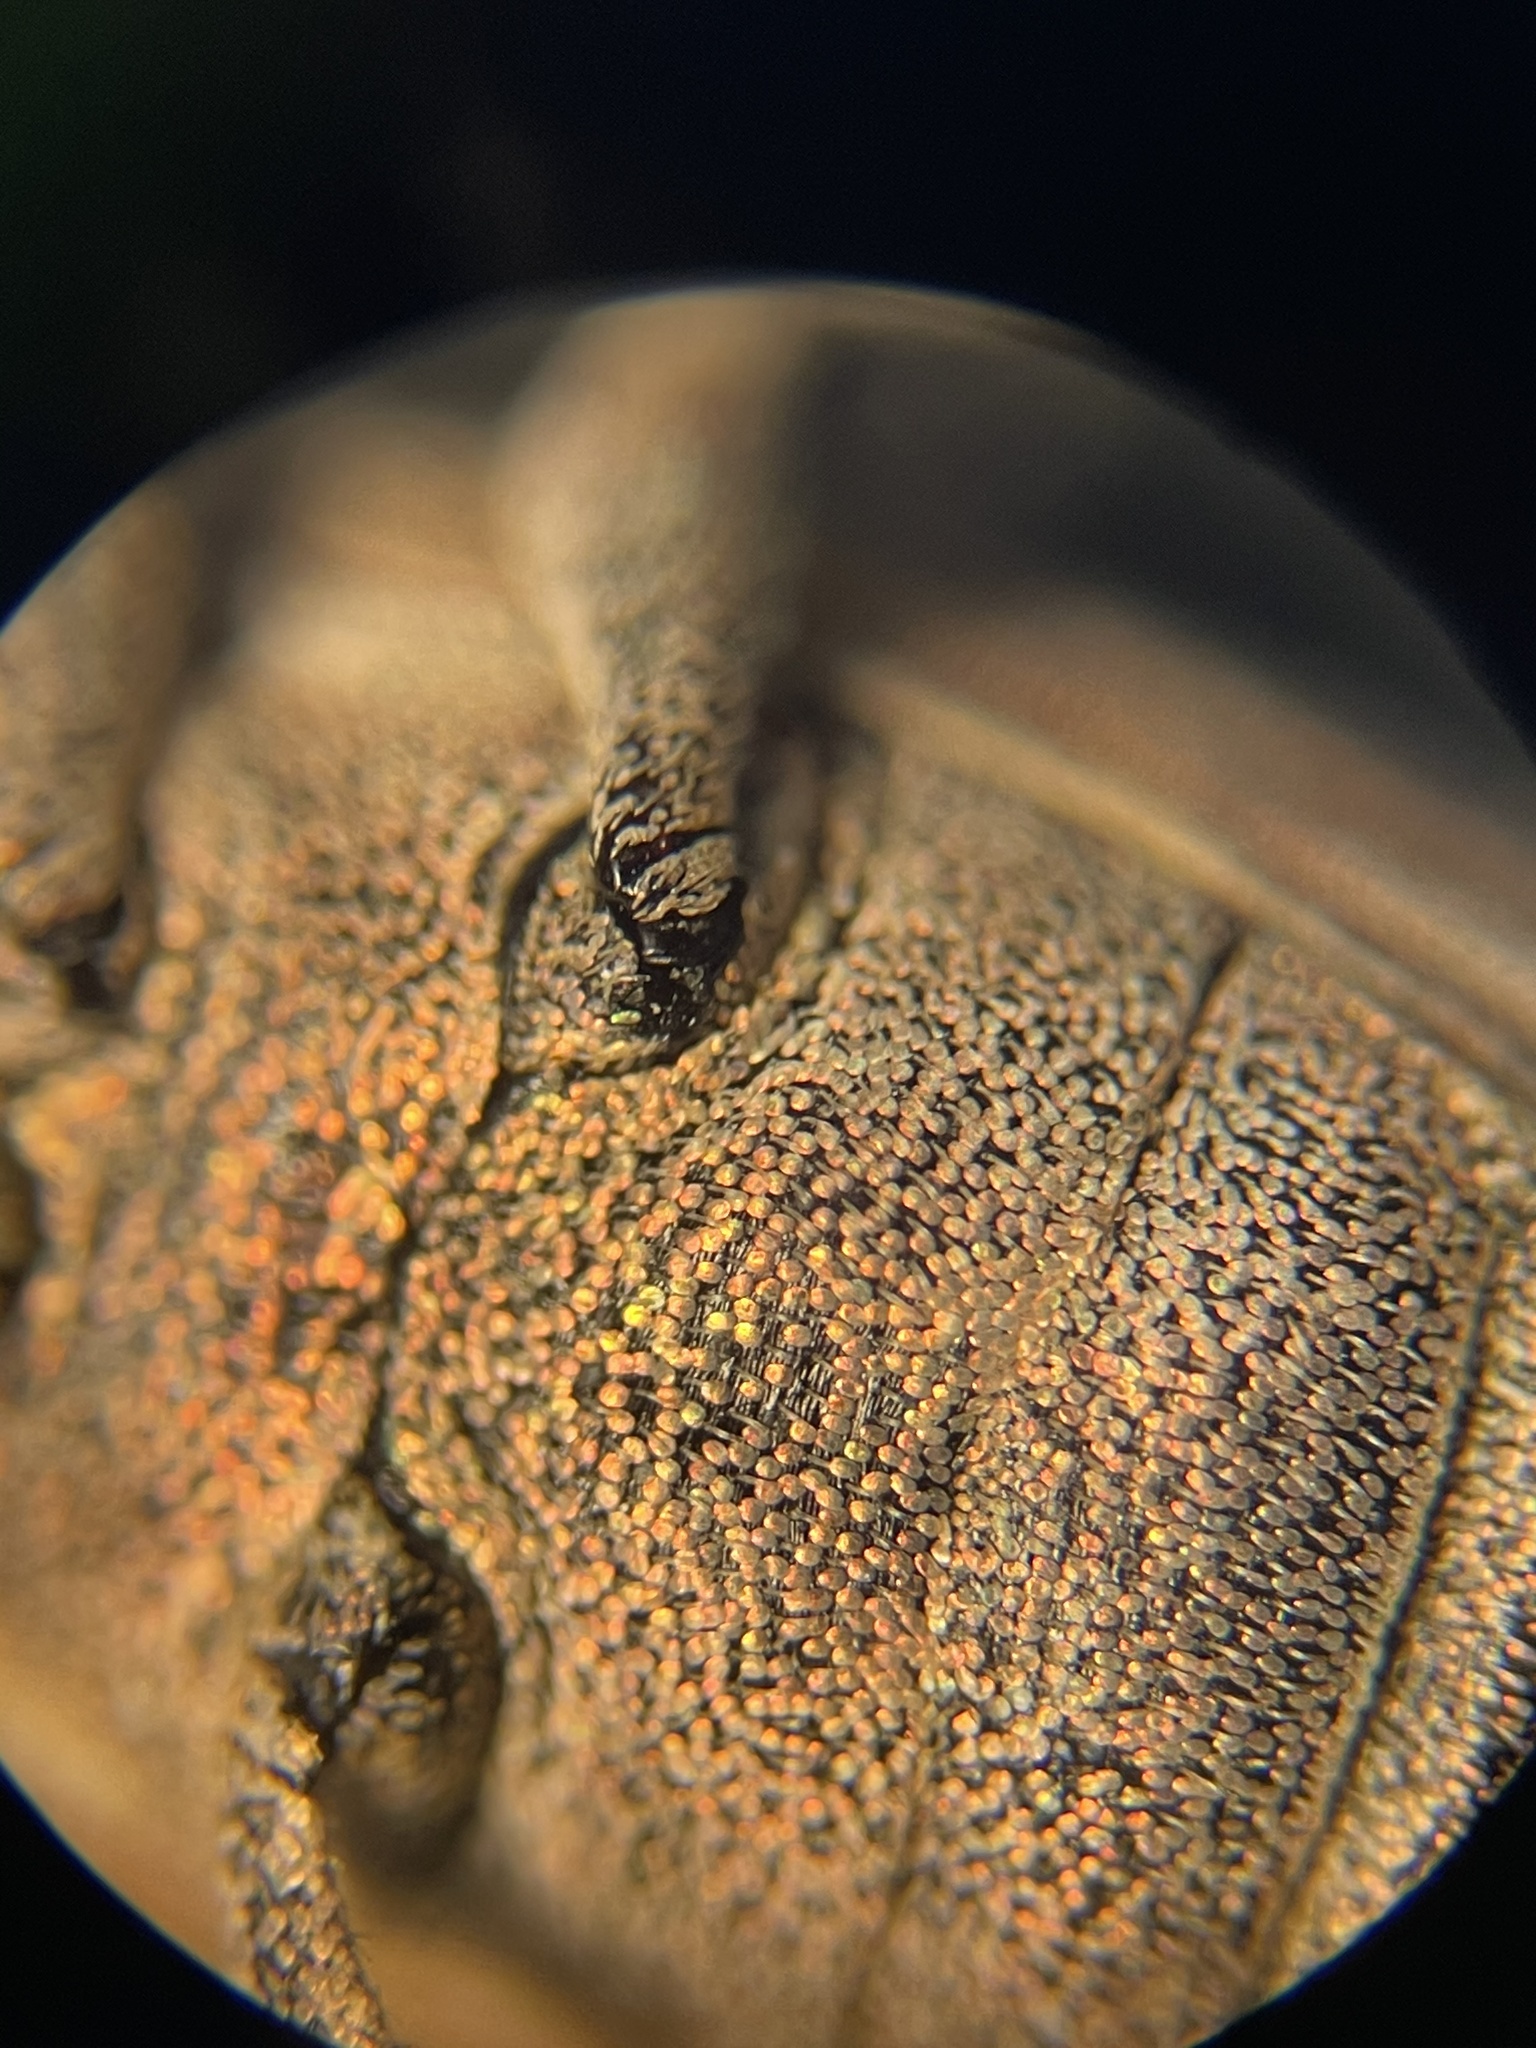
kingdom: Animalia
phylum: Arthropoda
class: Insecta
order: Coleoptera
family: Curculionidae
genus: Aramigus
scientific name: Aramigus tessellatus
